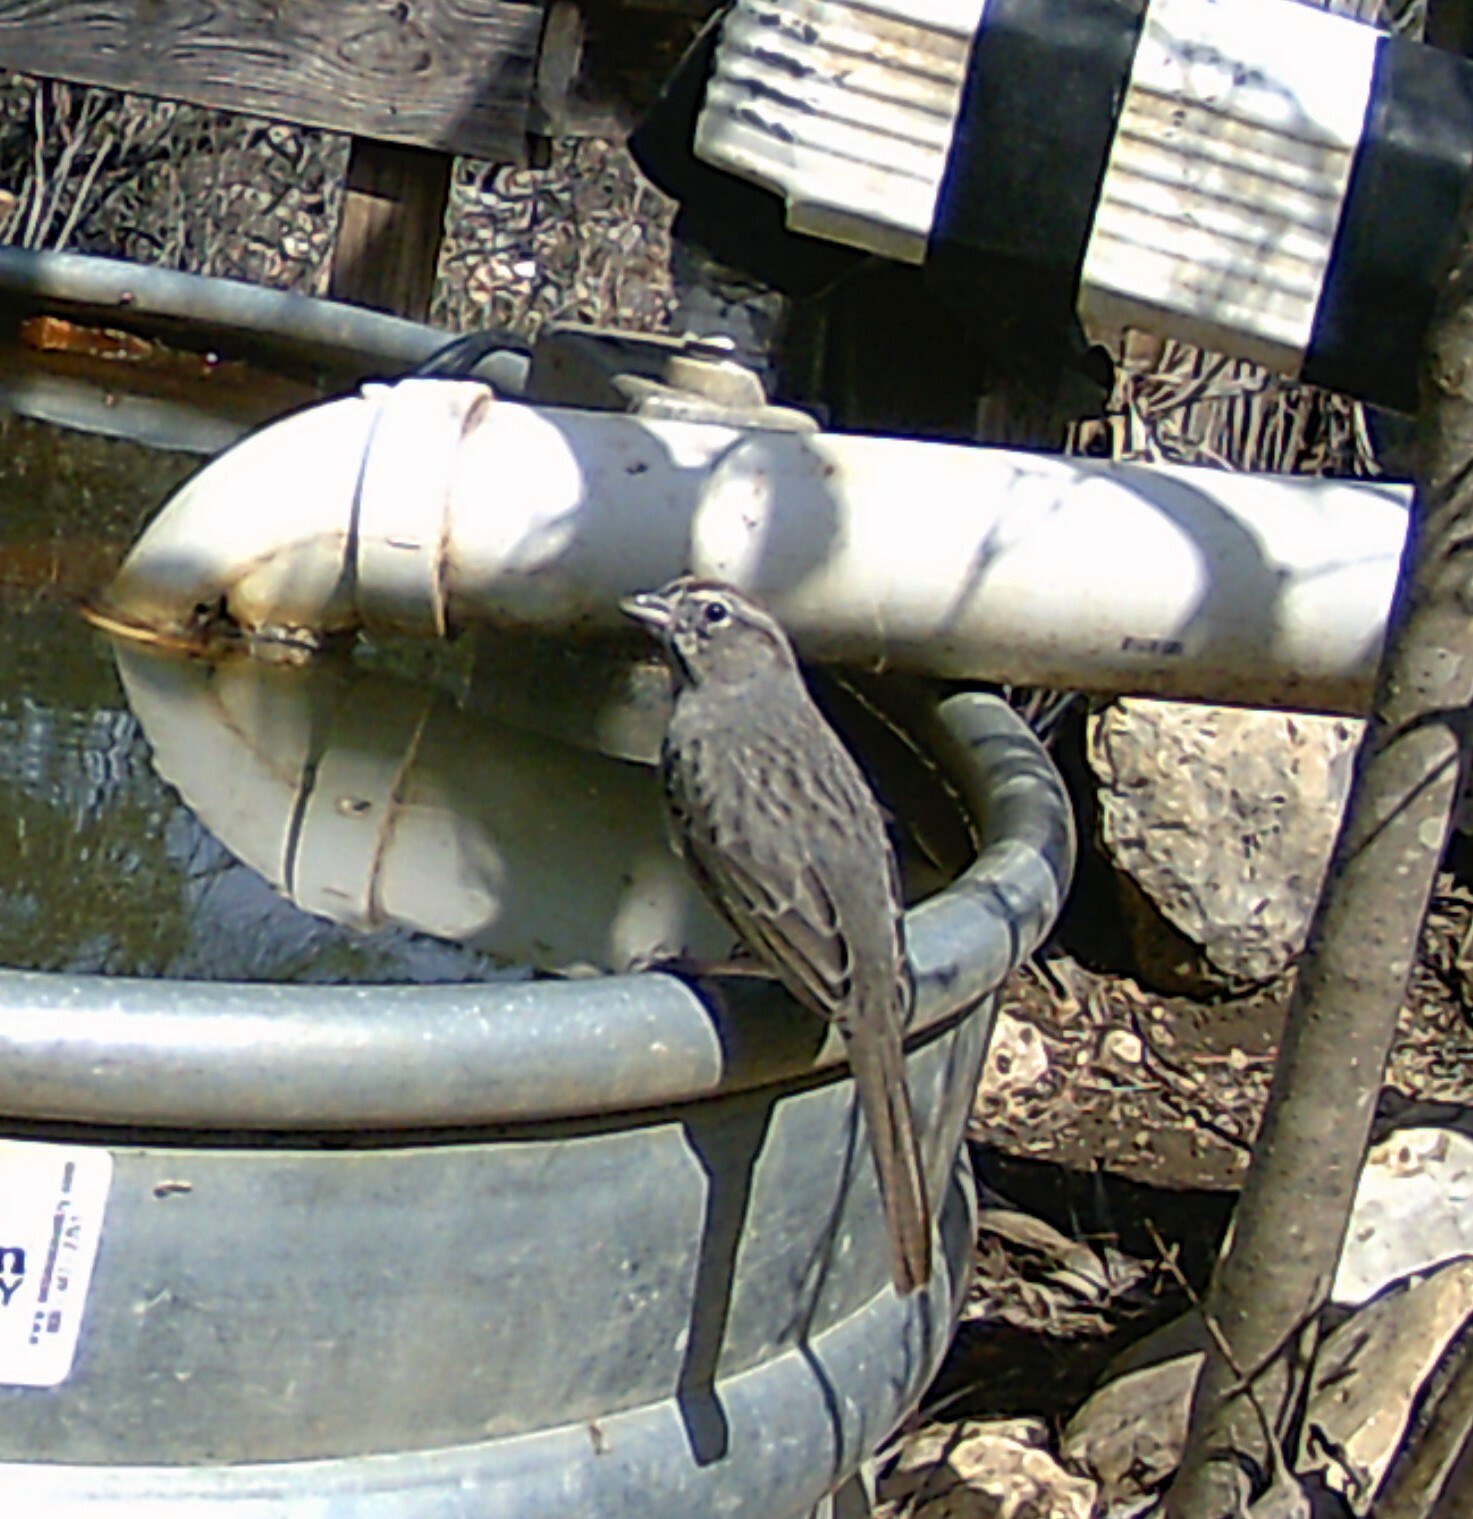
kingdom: Animalia
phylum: Chordata
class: Aves
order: Passeriformes
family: Passerellidae
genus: Aimophila
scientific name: Aimophila ruficeps
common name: Rufous-crowned sparrow
